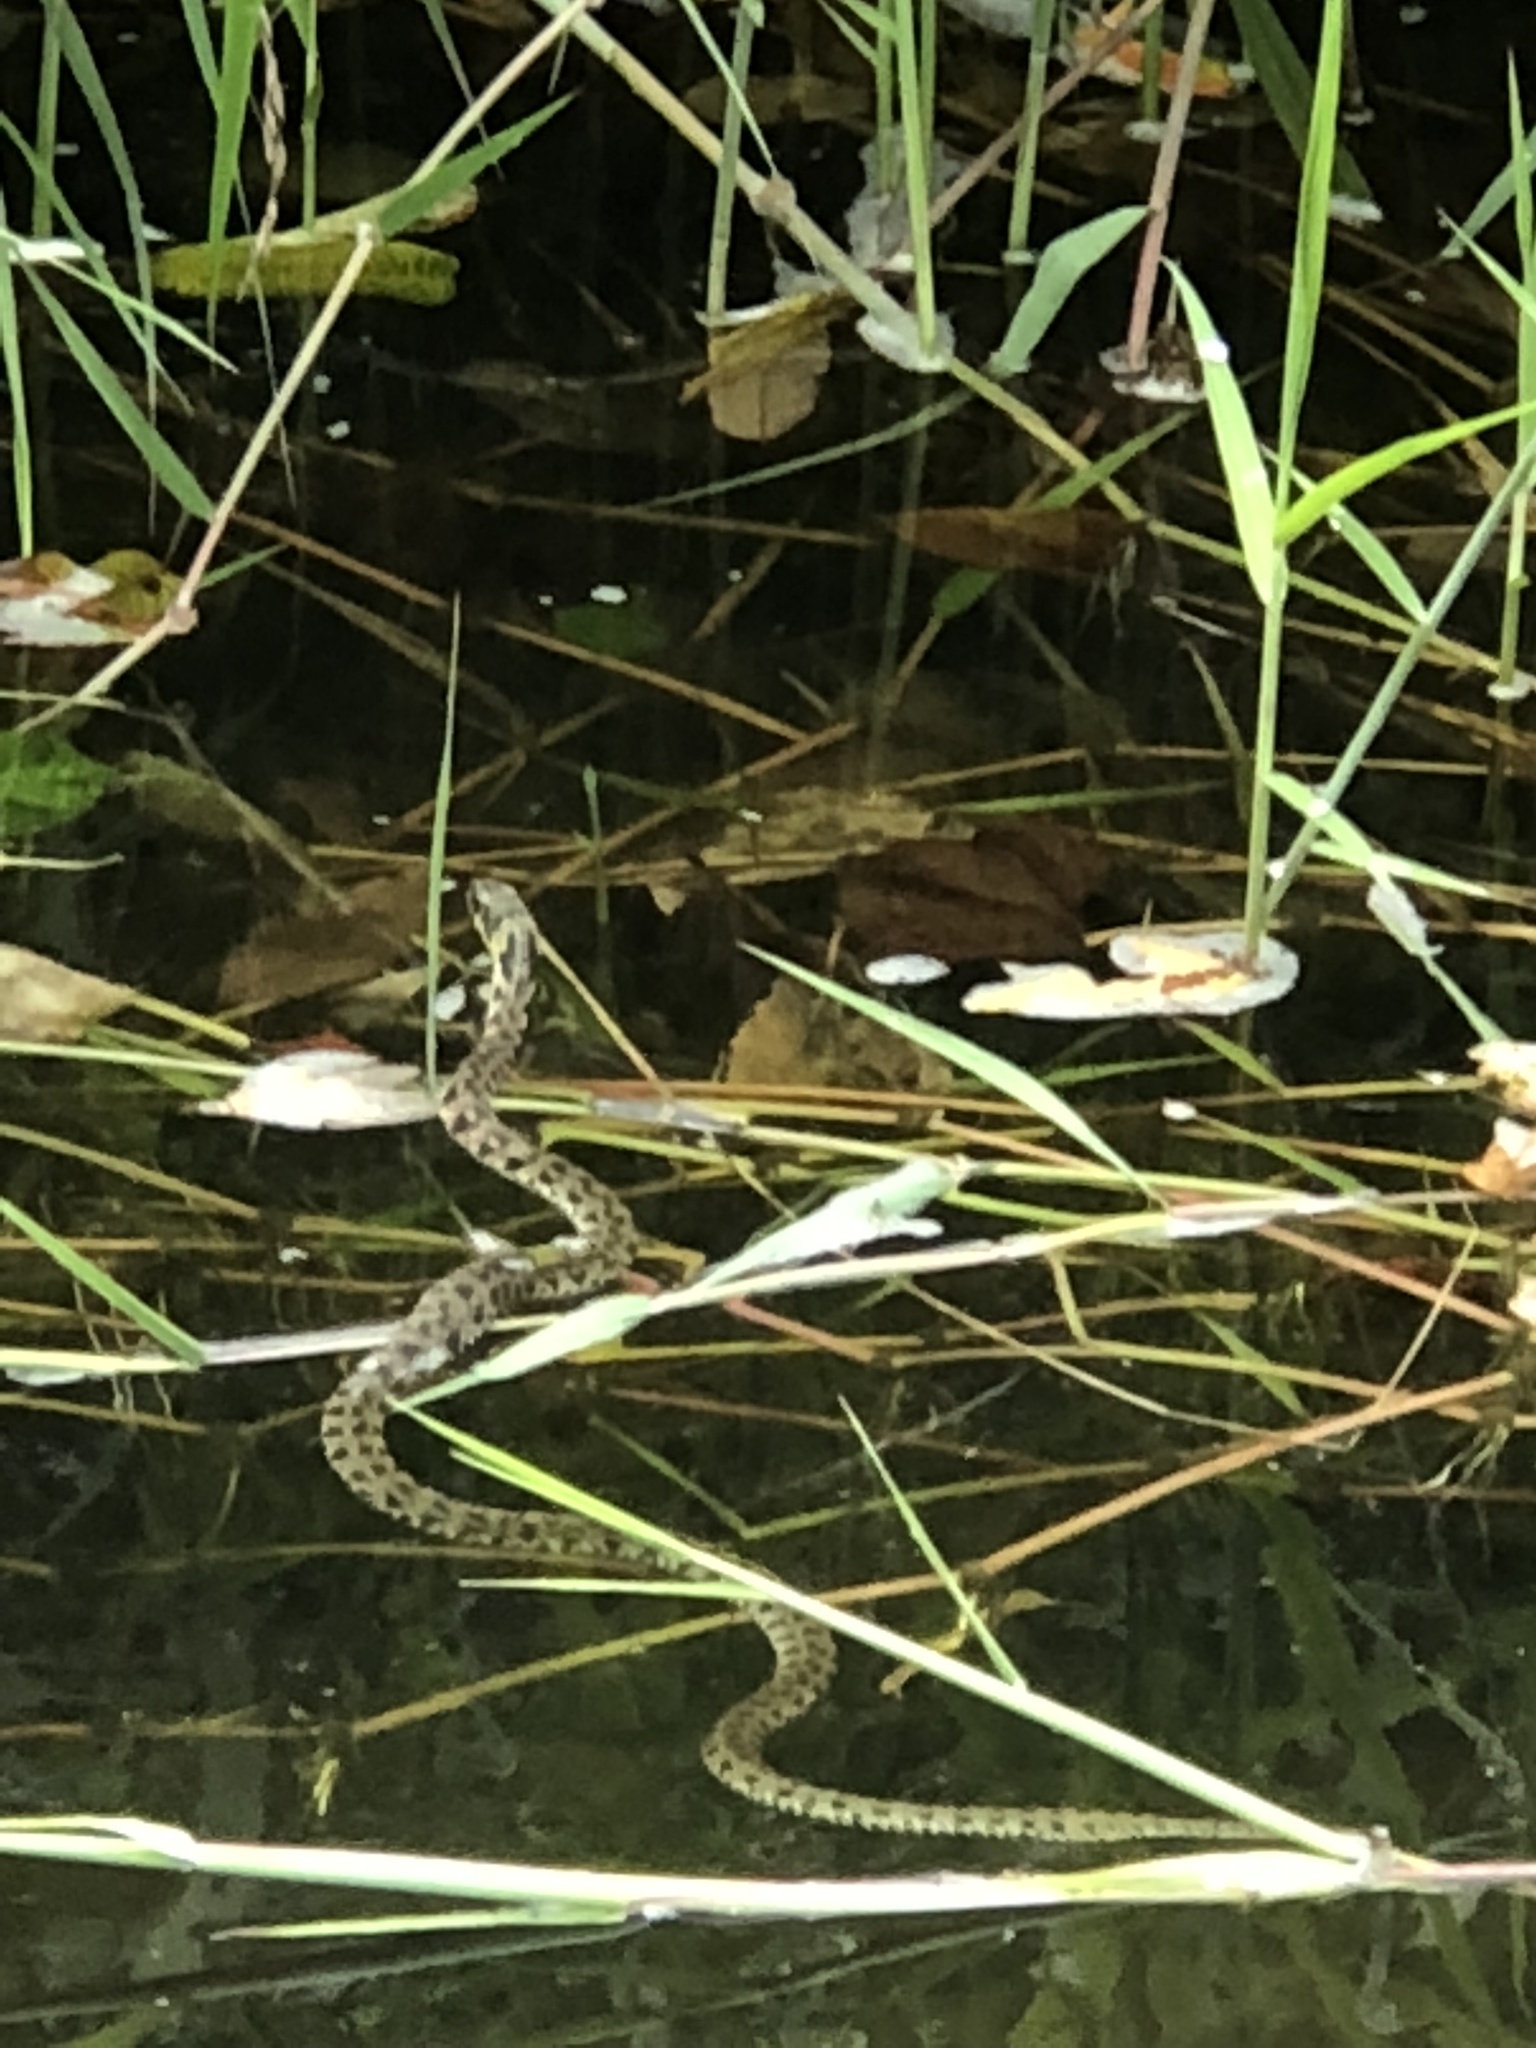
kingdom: Animalia
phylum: Chordata
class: Squamata
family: Colubridae
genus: Rhabdophis
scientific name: Rhabdophis tigrinus
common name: Tiger keelback
